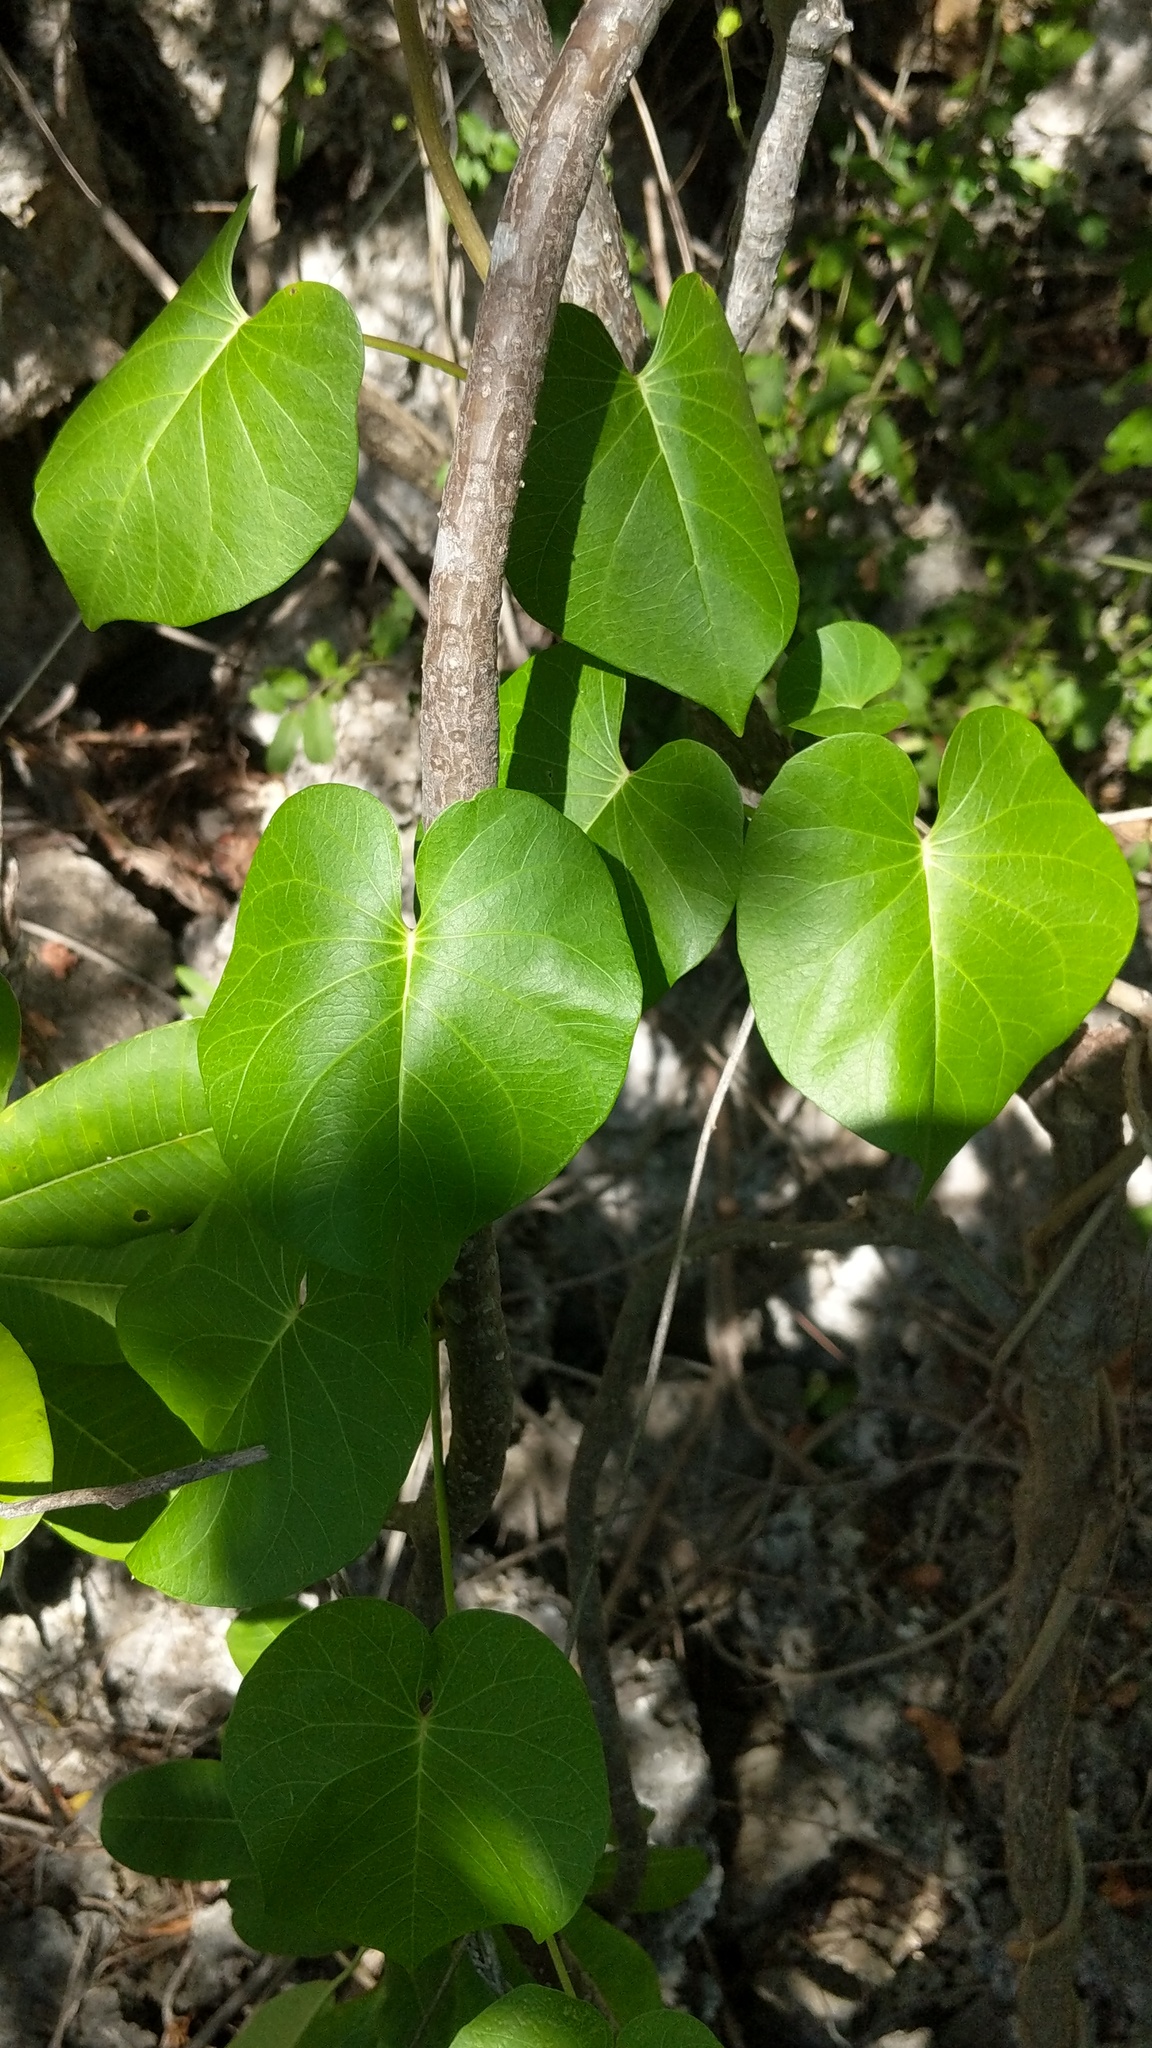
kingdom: Plantae
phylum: Tracheophyta
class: Magnoliopsida
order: Solanales
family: Convolvulaceae
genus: Ipomoea
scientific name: Ipomoea violacea
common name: Beach moonflower
